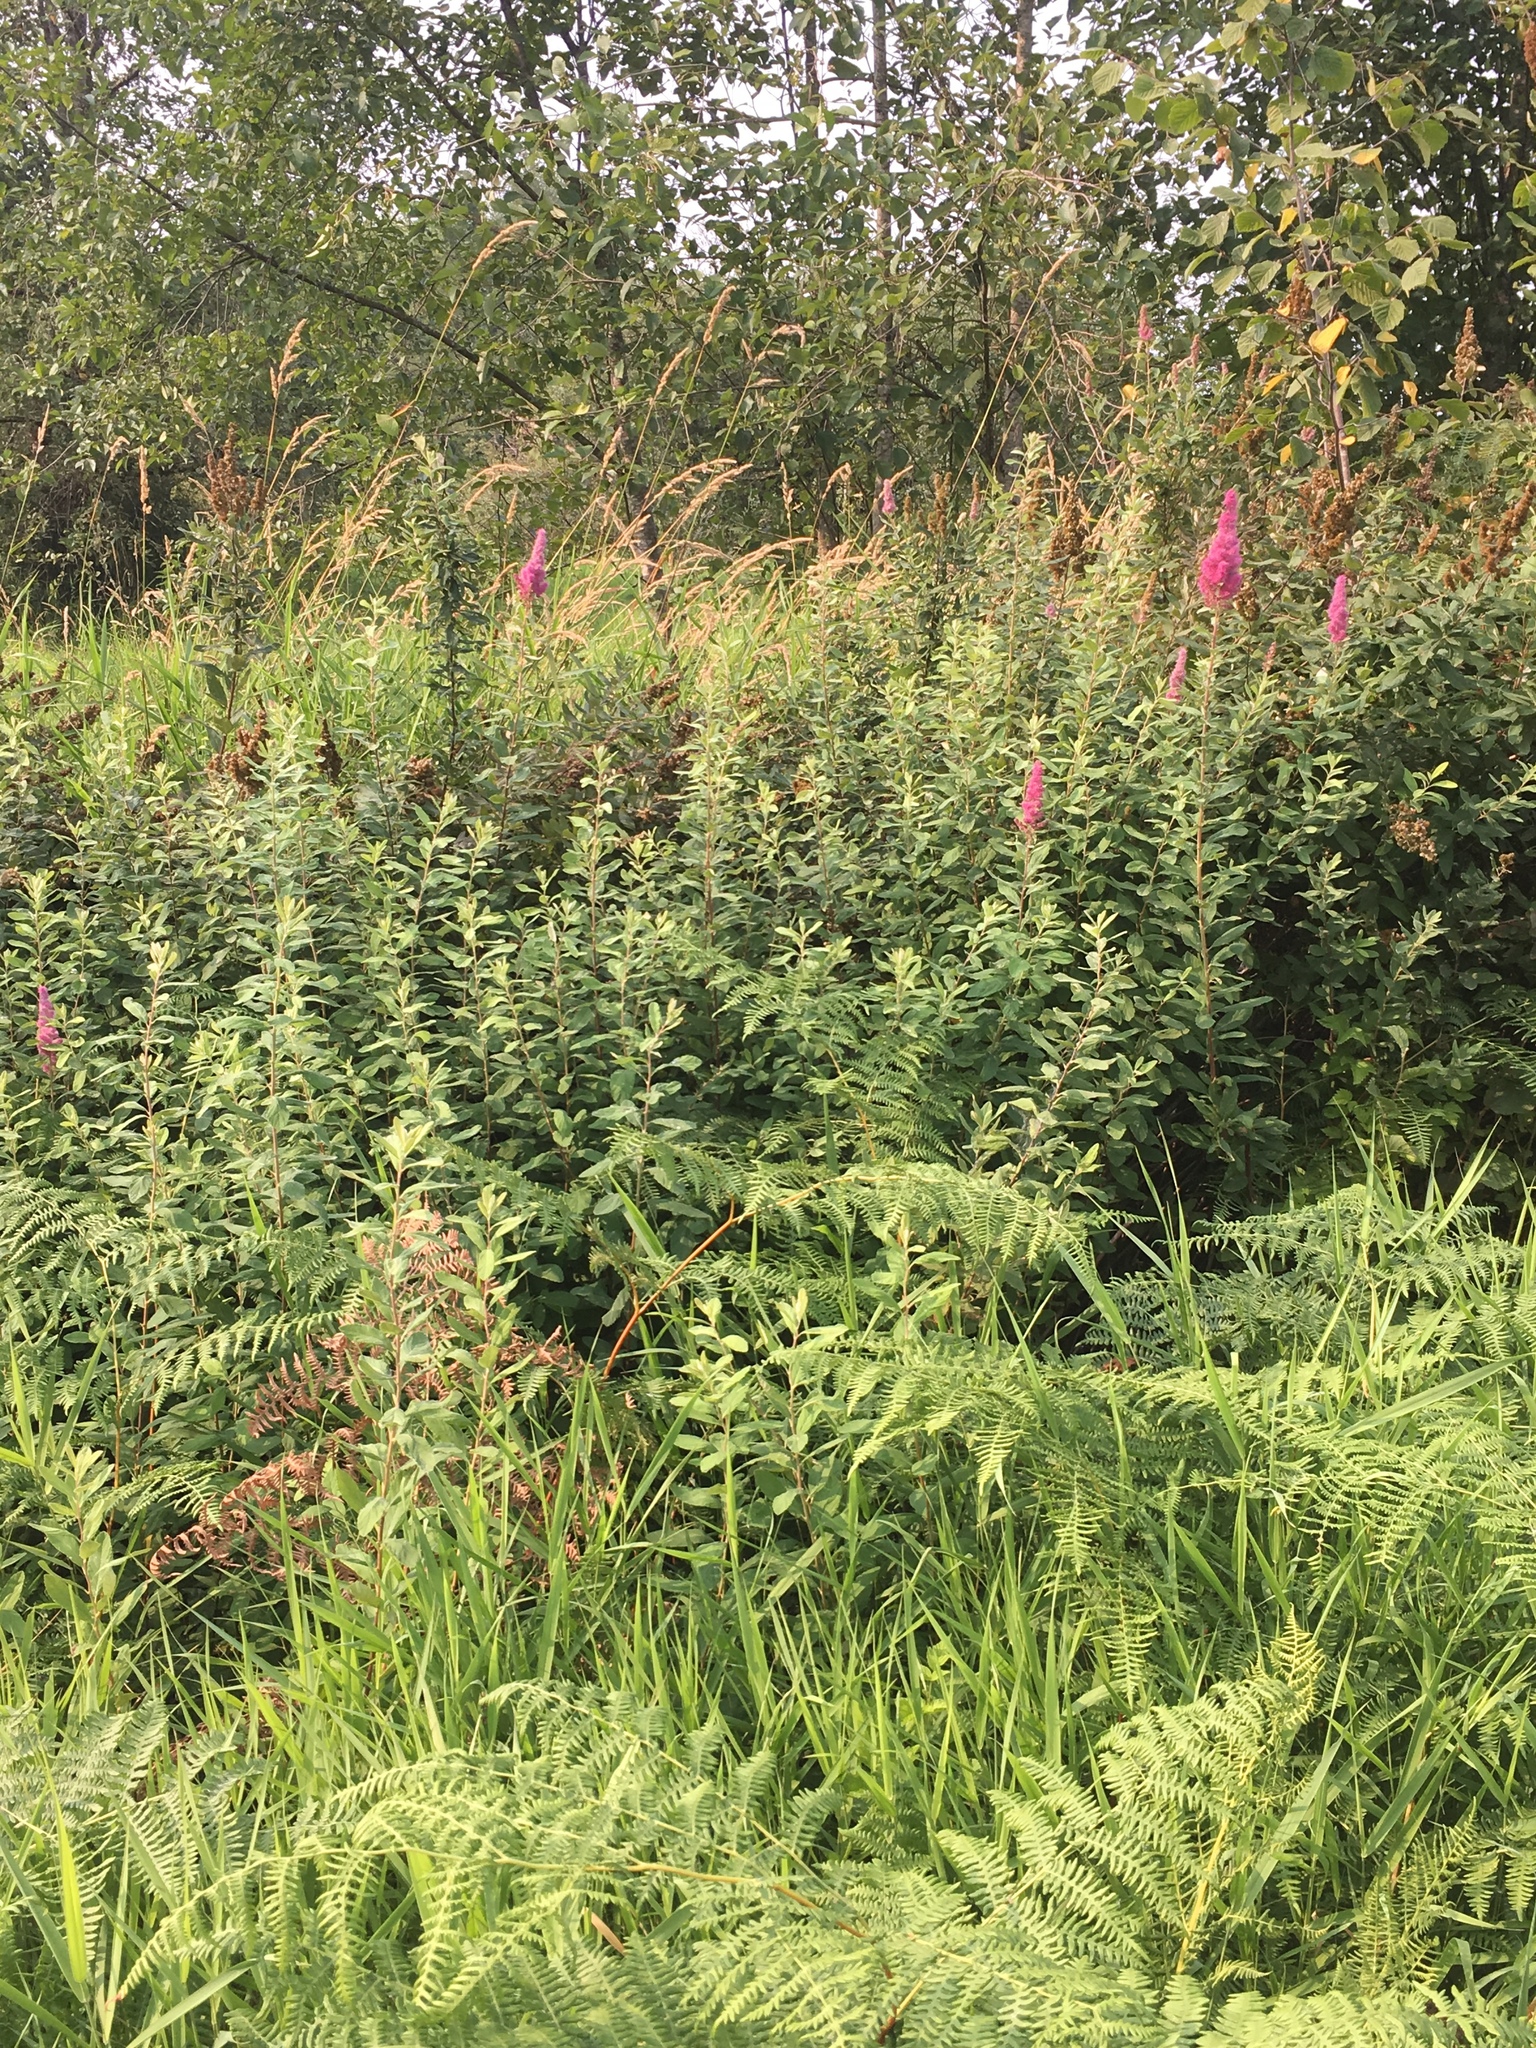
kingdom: Plantae
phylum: Tracheophyta
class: Magnoliopsida
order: Rosales
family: Rosaceae
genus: Spiraea
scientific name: Spiraea douglasii
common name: Steeplebush
